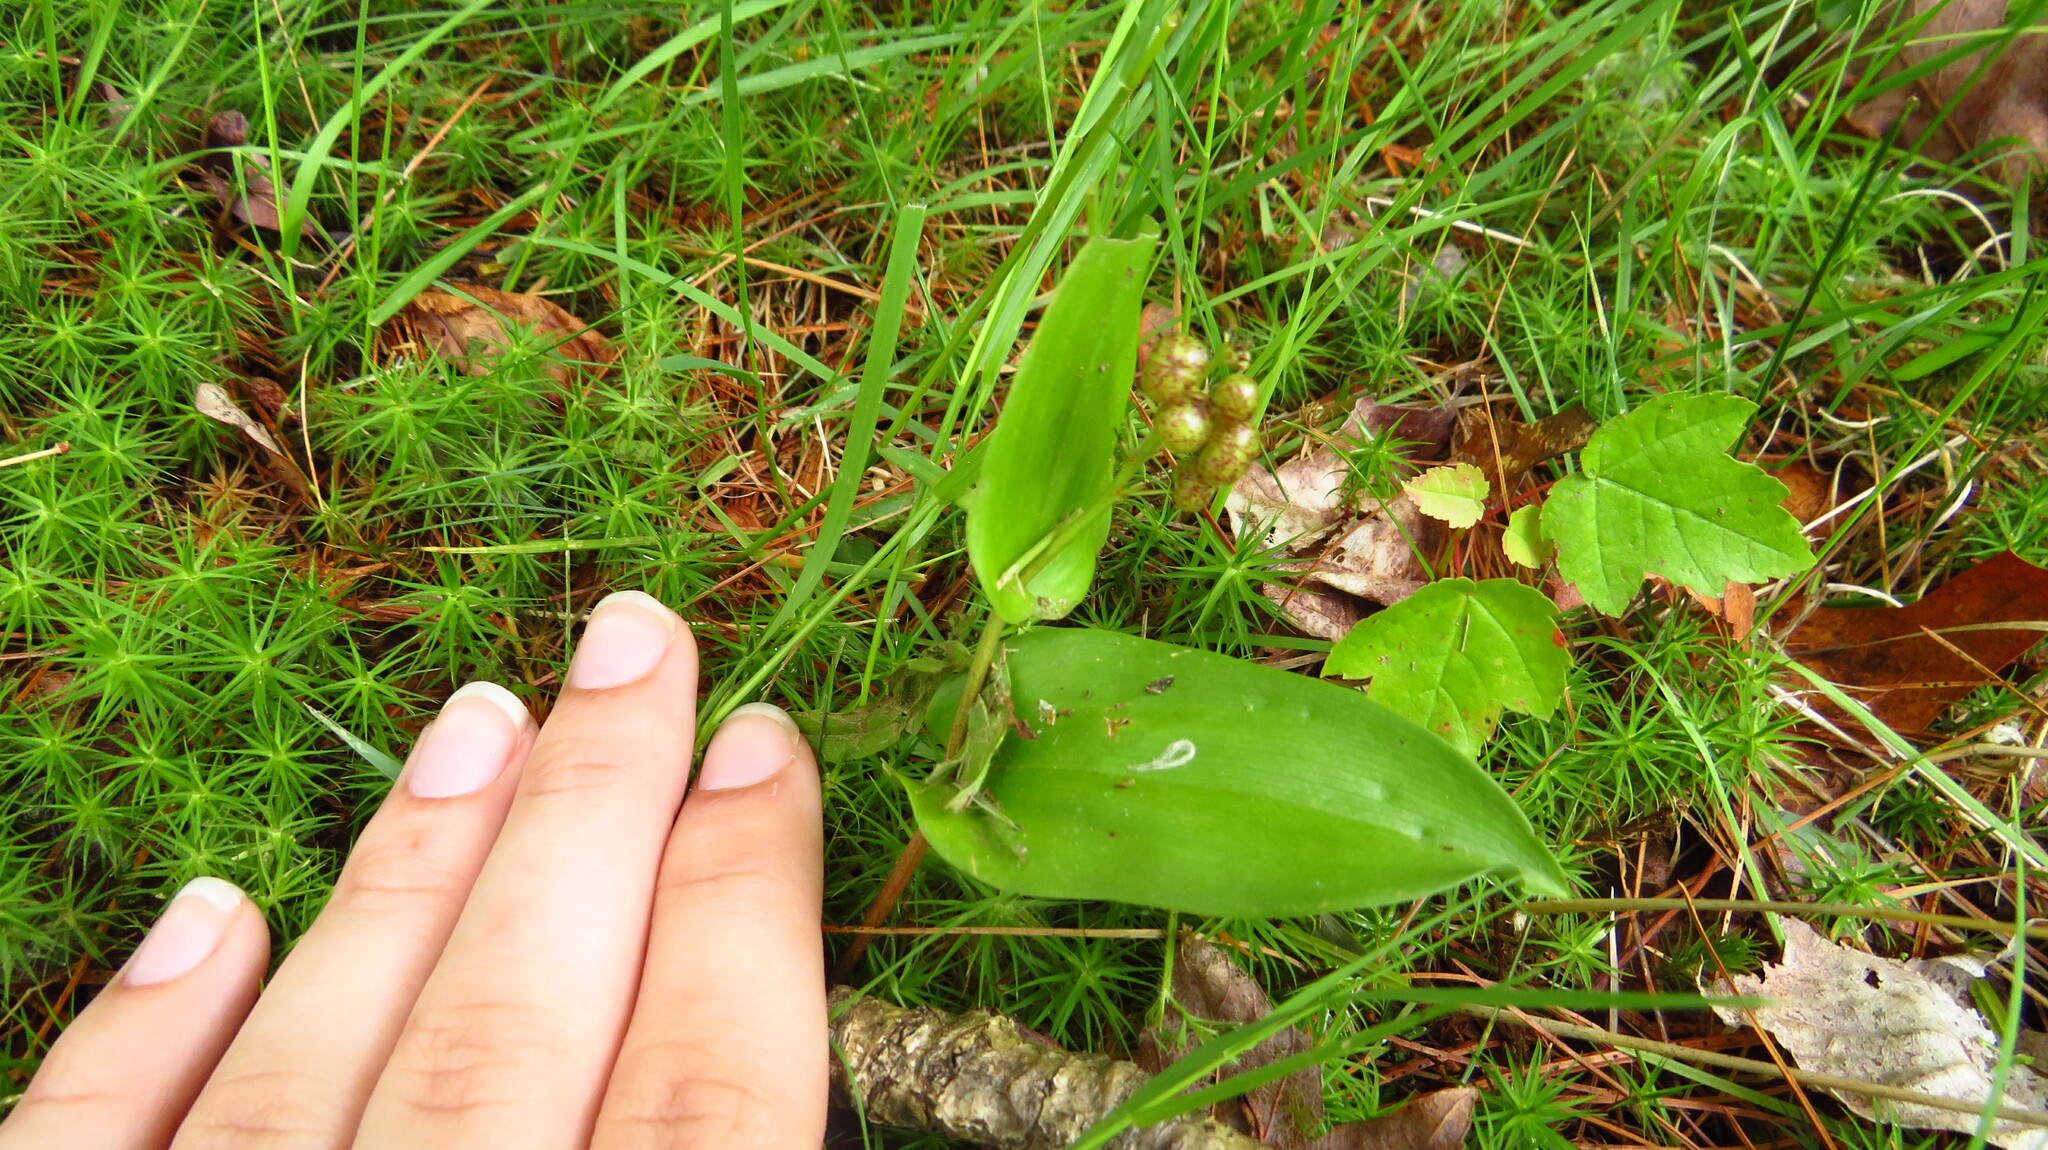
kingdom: Plantae
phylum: Tracheophyta
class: Liliopsida
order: Asparagales
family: Asparagaceae
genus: Maianthemum
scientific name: Maianthemum canadense
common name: False lily-of-the-valley
